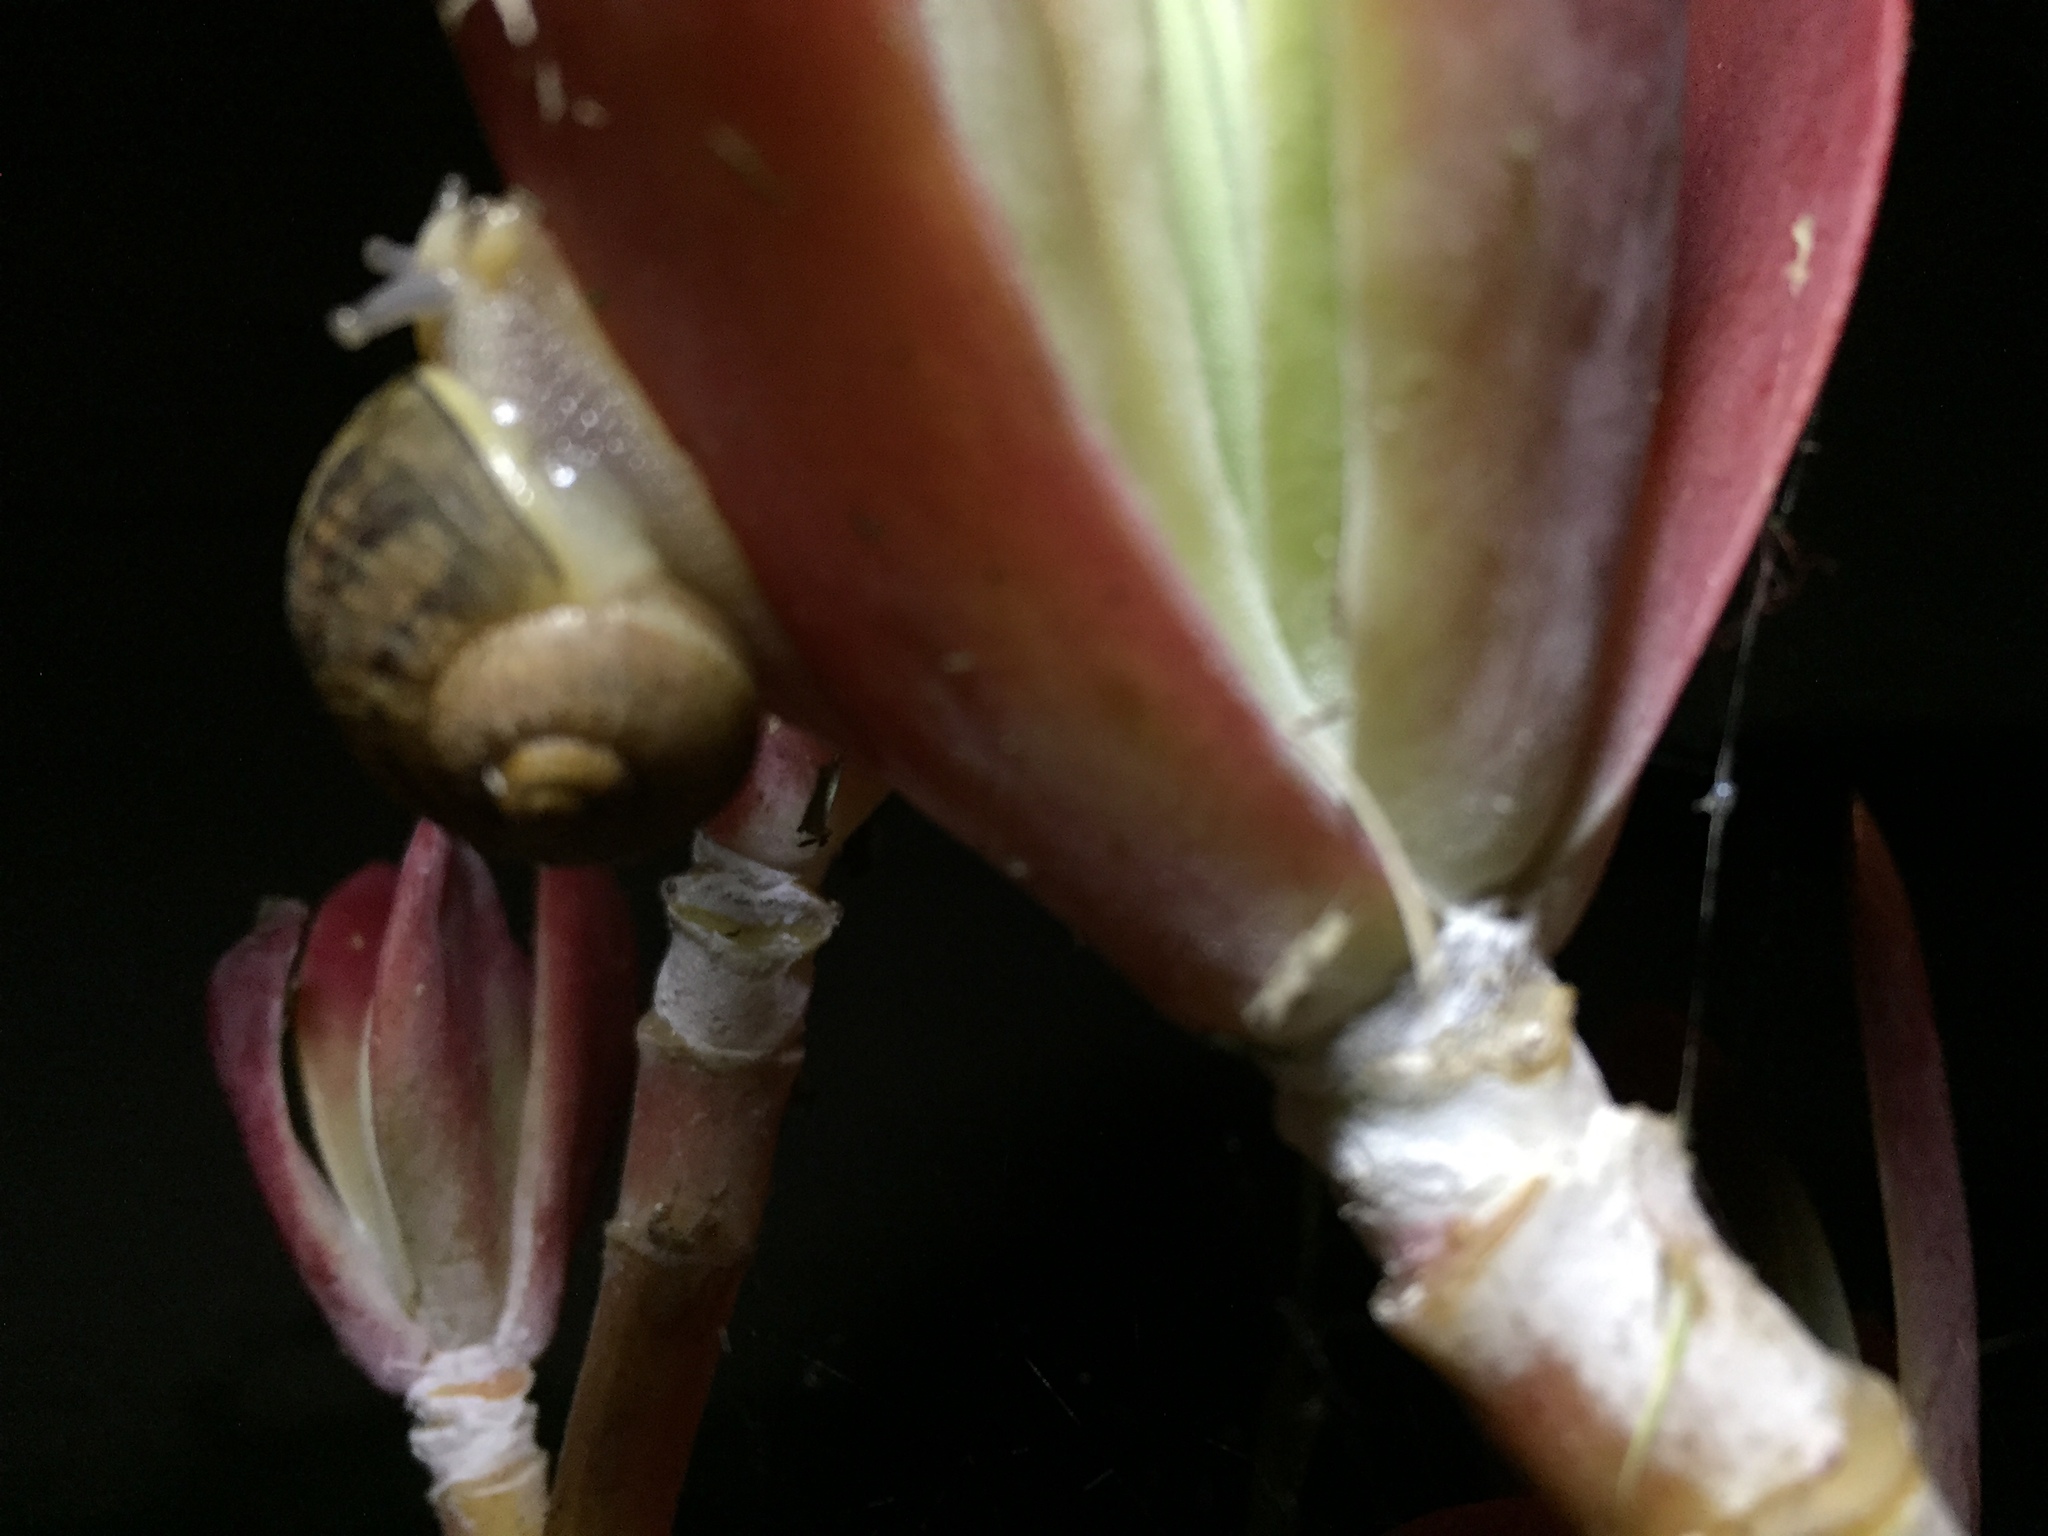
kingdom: Animalia
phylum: Mollusca
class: Gastropoda
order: Stylommatophora
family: Helicidae
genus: Cornu
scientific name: Cornu aspersum
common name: Brown garden snail
